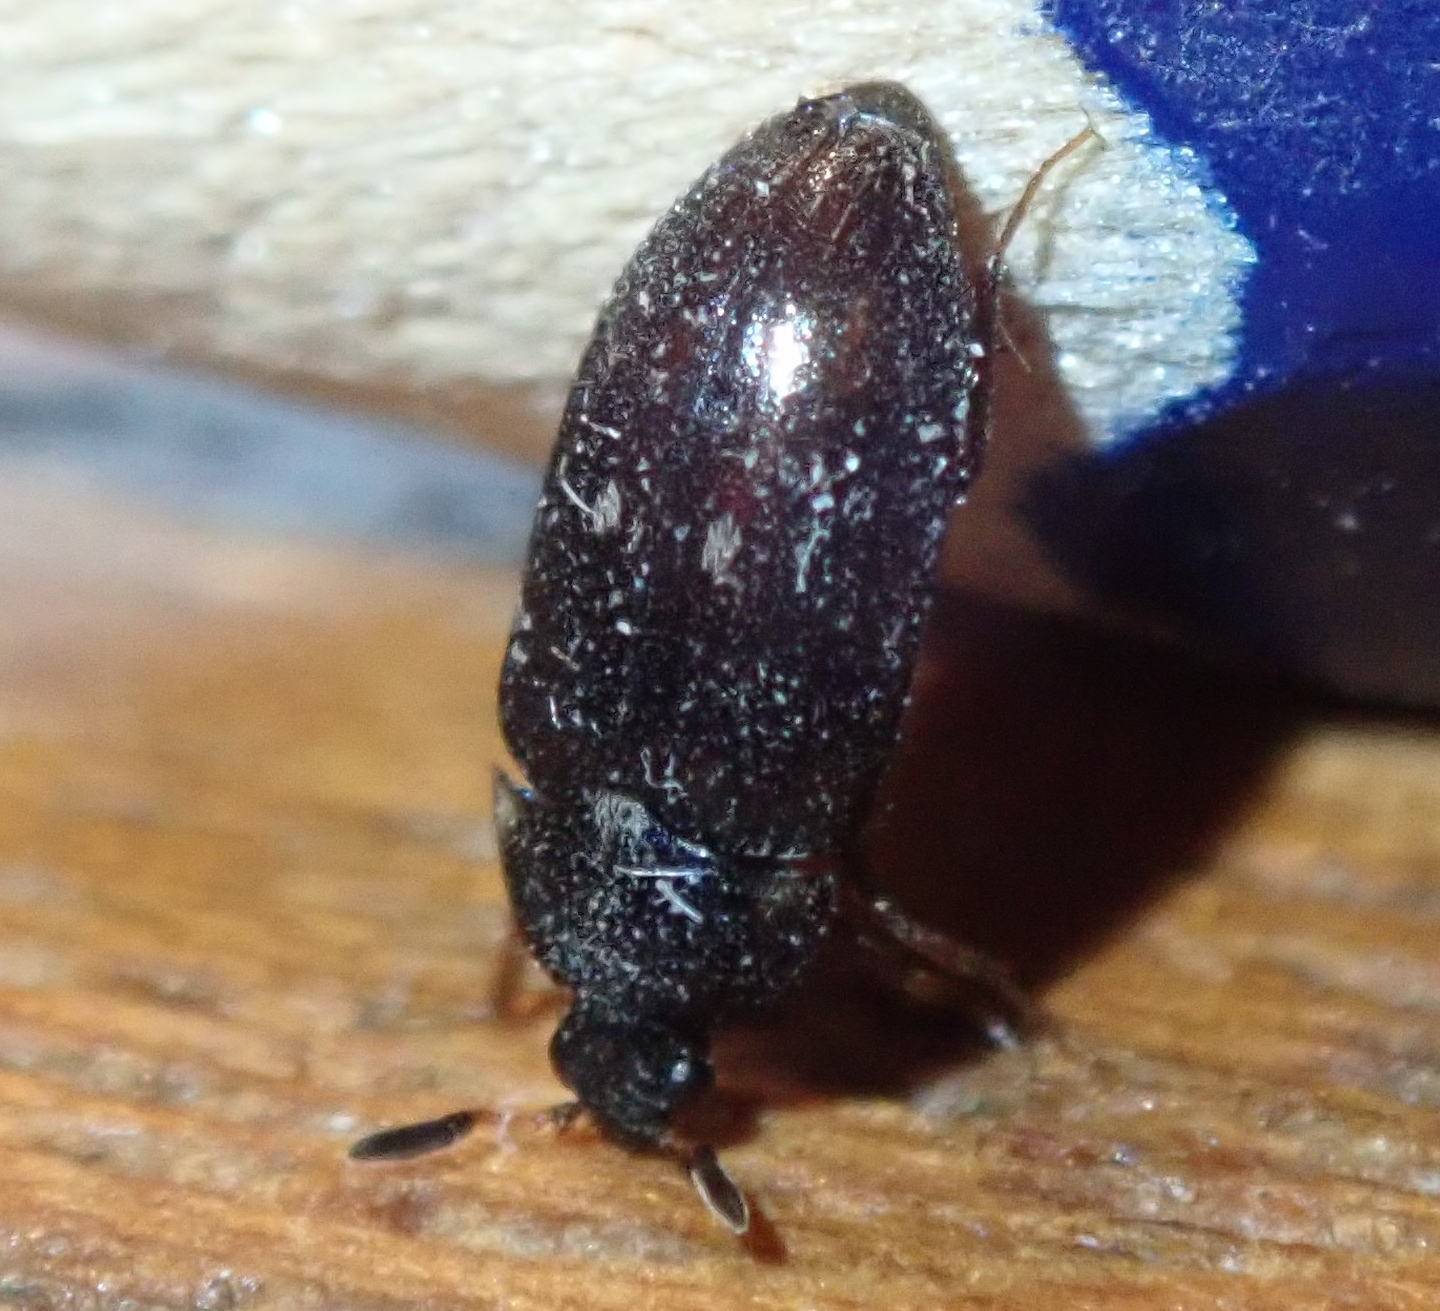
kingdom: Animalia
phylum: Arthropoda
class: Insecta
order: Coleoptera
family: Dermestidae
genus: Attagenus
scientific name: Attagenus pellio
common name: Two-spotted carpet beetle
